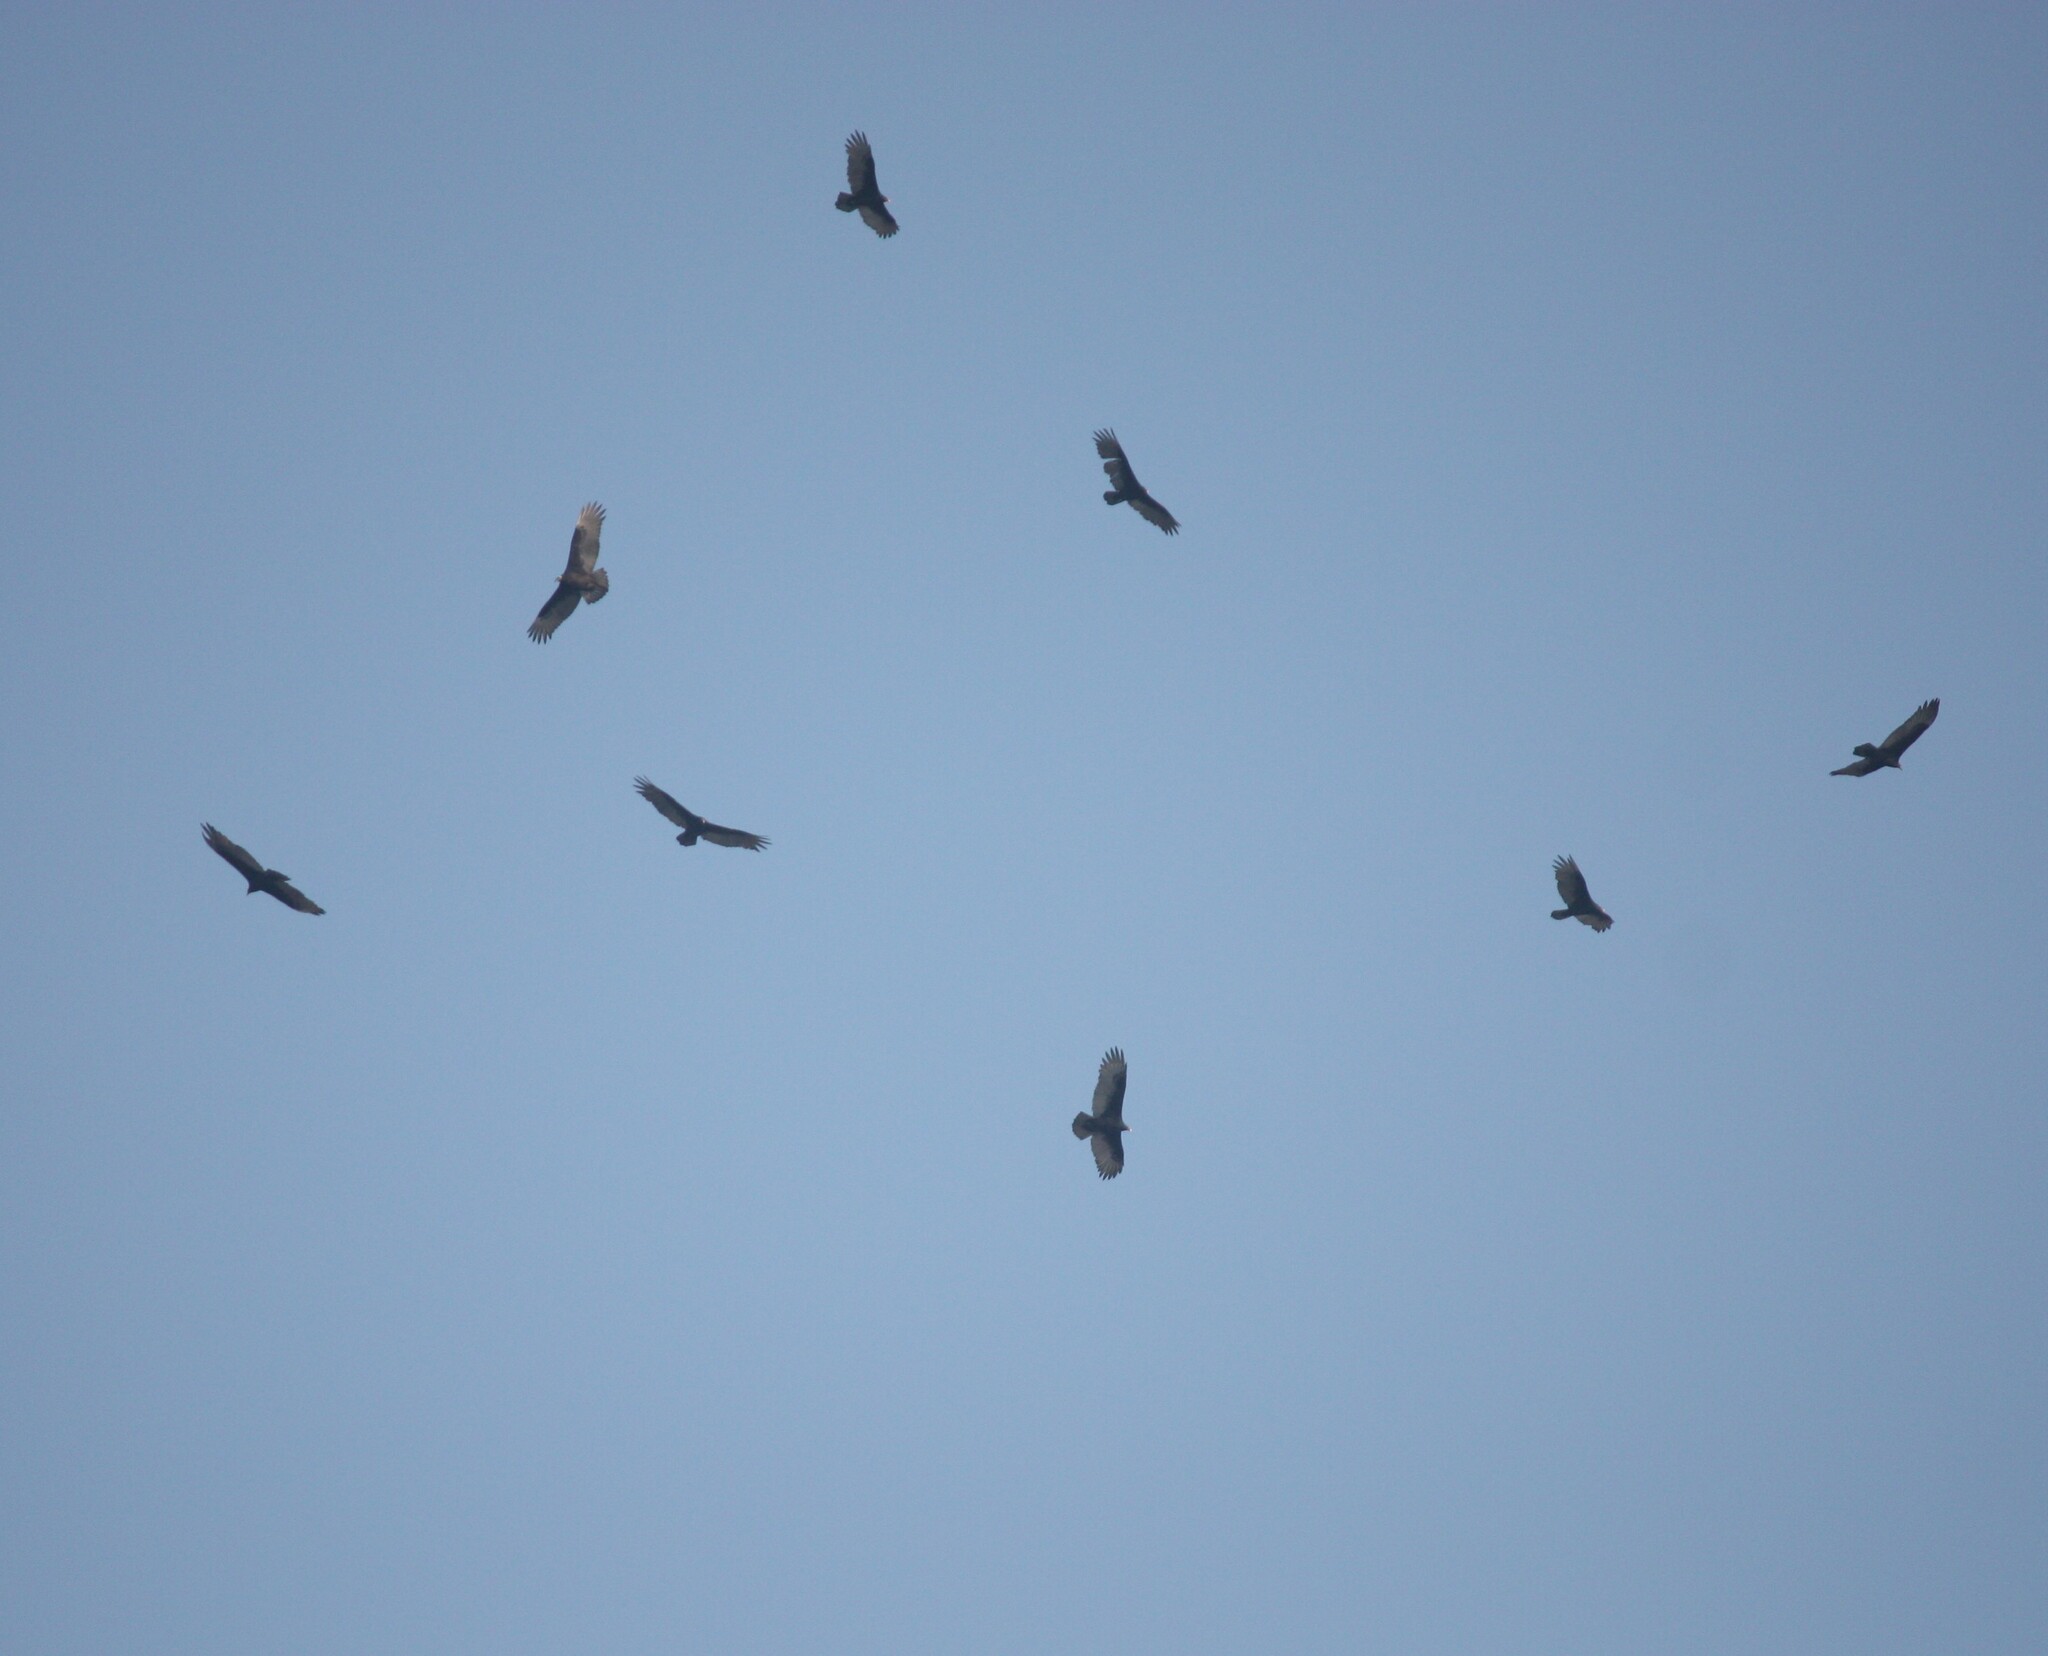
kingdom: Animalia
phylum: Chordata
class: Aves
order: Accipitriformes
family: Cathartidae
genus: Cathartes
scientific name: Cathartes aura
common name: Turkey vulture
